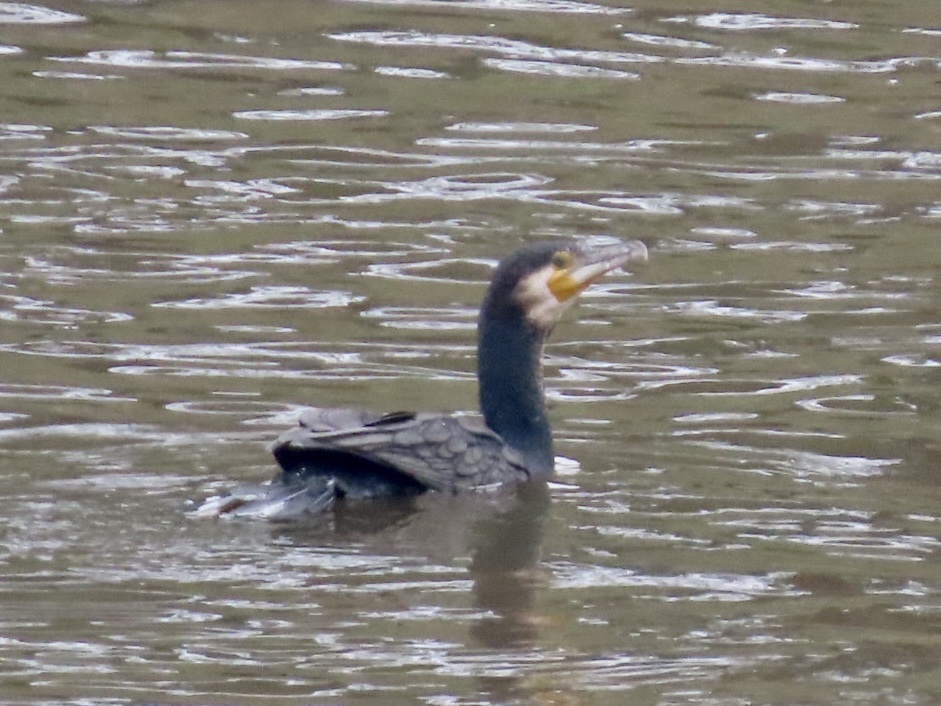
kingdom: Animalia
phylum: Chordata
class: Aves
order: Suliformes
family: Phalacrocoracidae
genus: Phalacrocorax
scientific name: Phalacrocorax carbo
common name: Great cormorant
